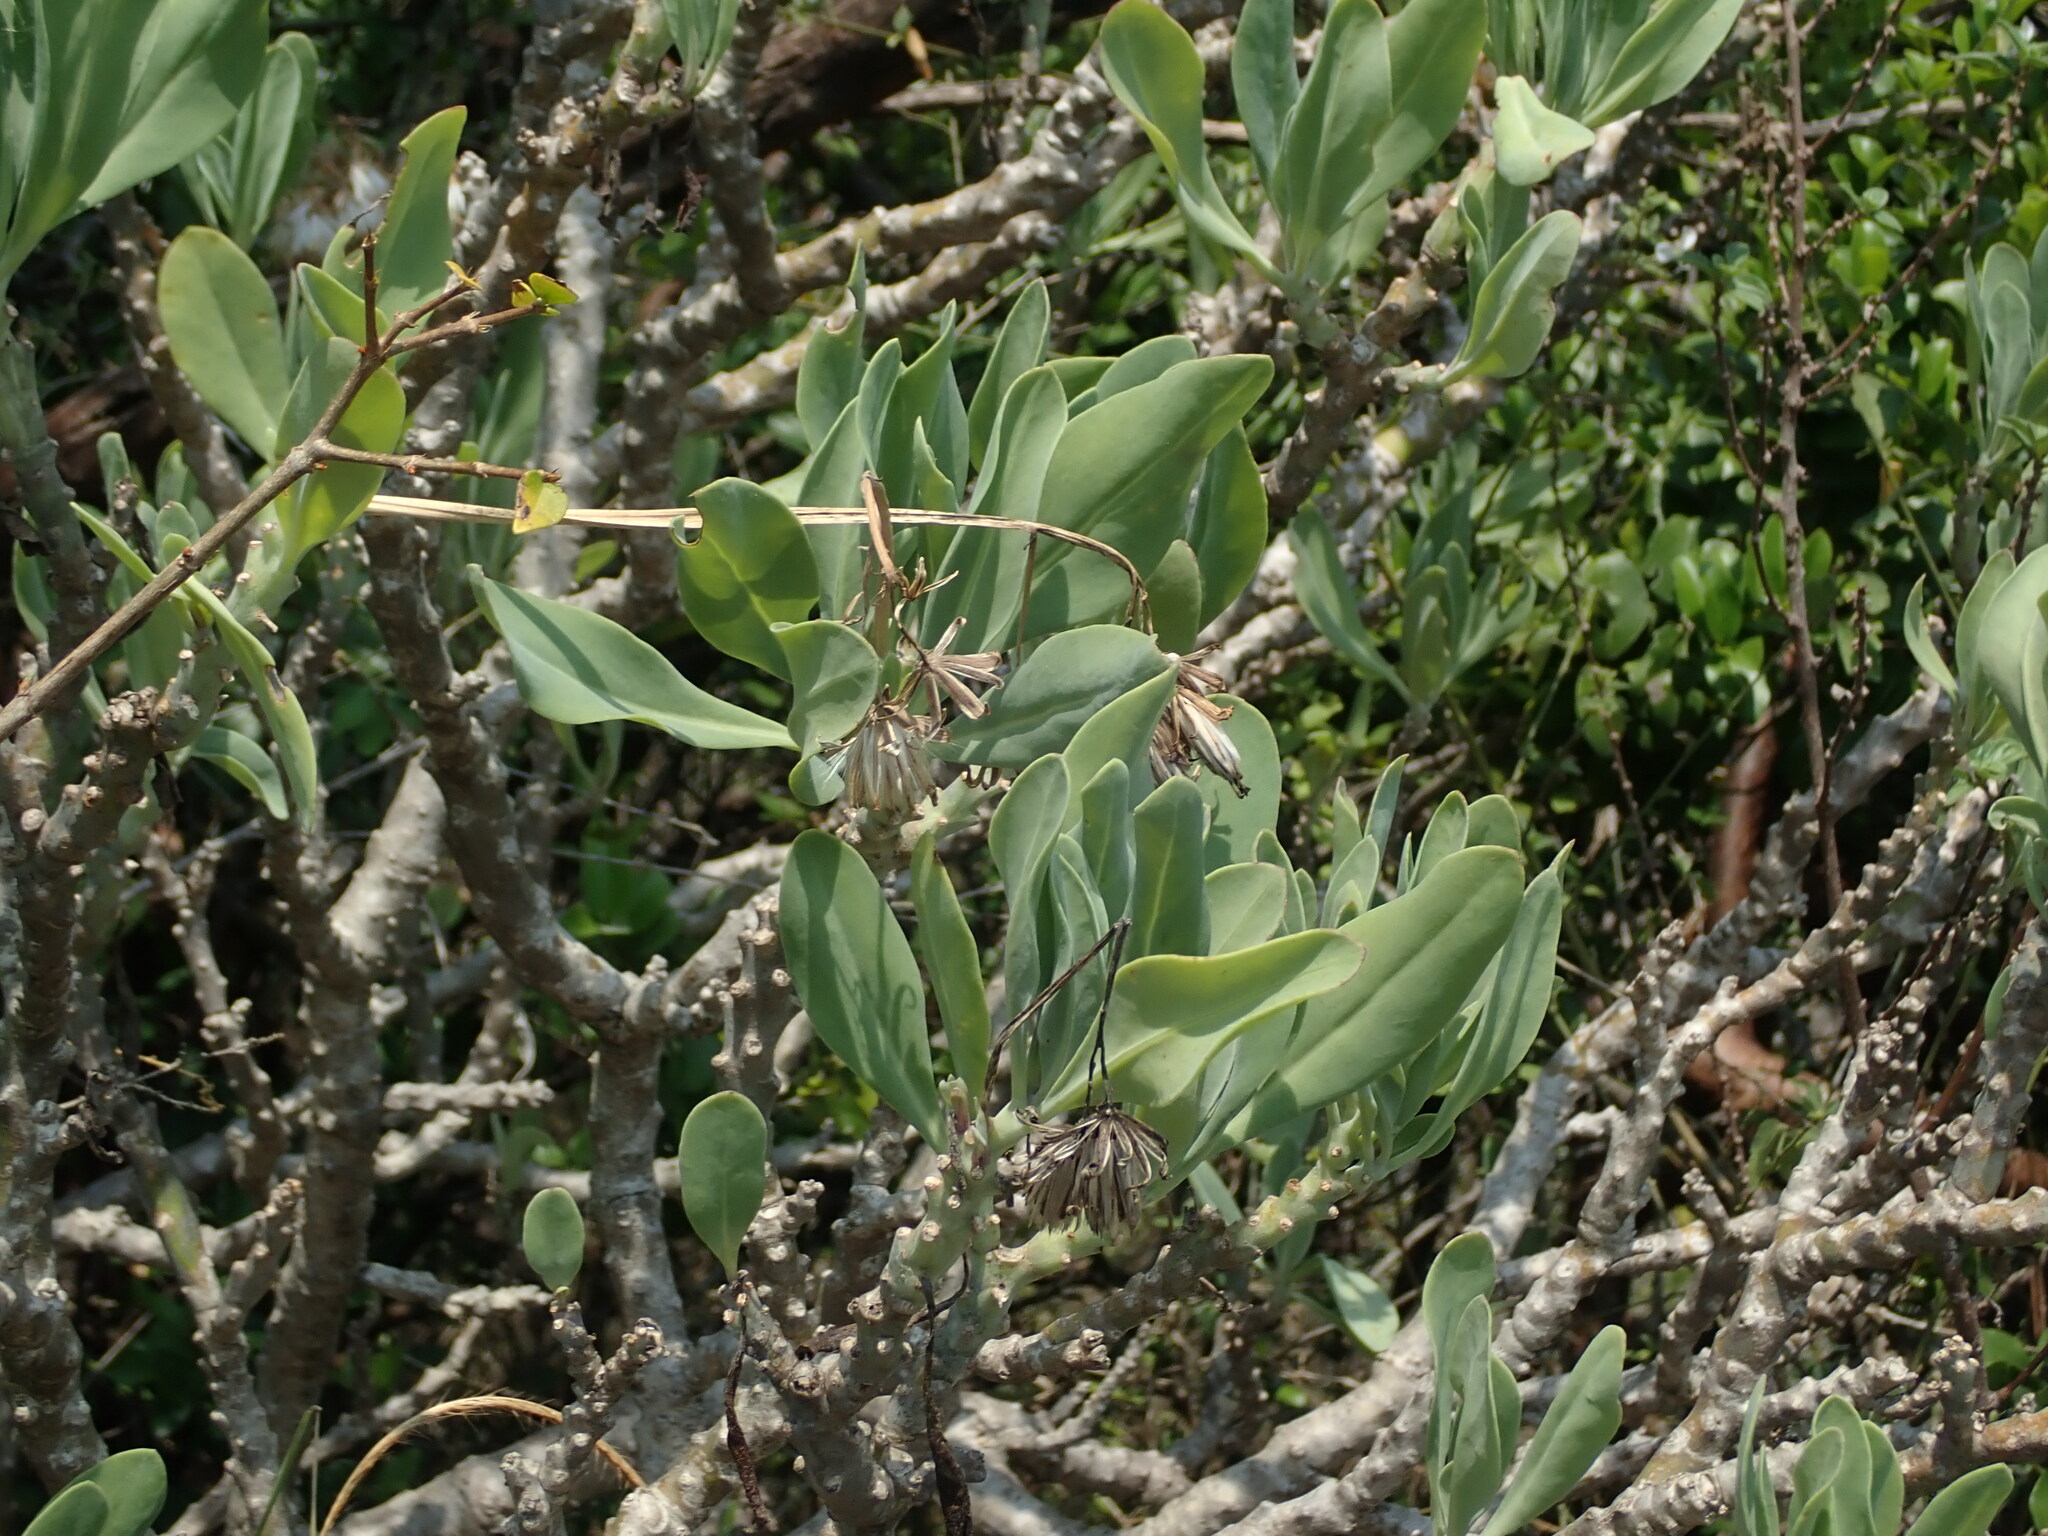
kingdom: Plantae
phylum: Tracheophyta
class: Magnoliopsida
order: Asterales
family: Asteraceae
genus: Kleinia
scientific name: Kleinia grandiflora
